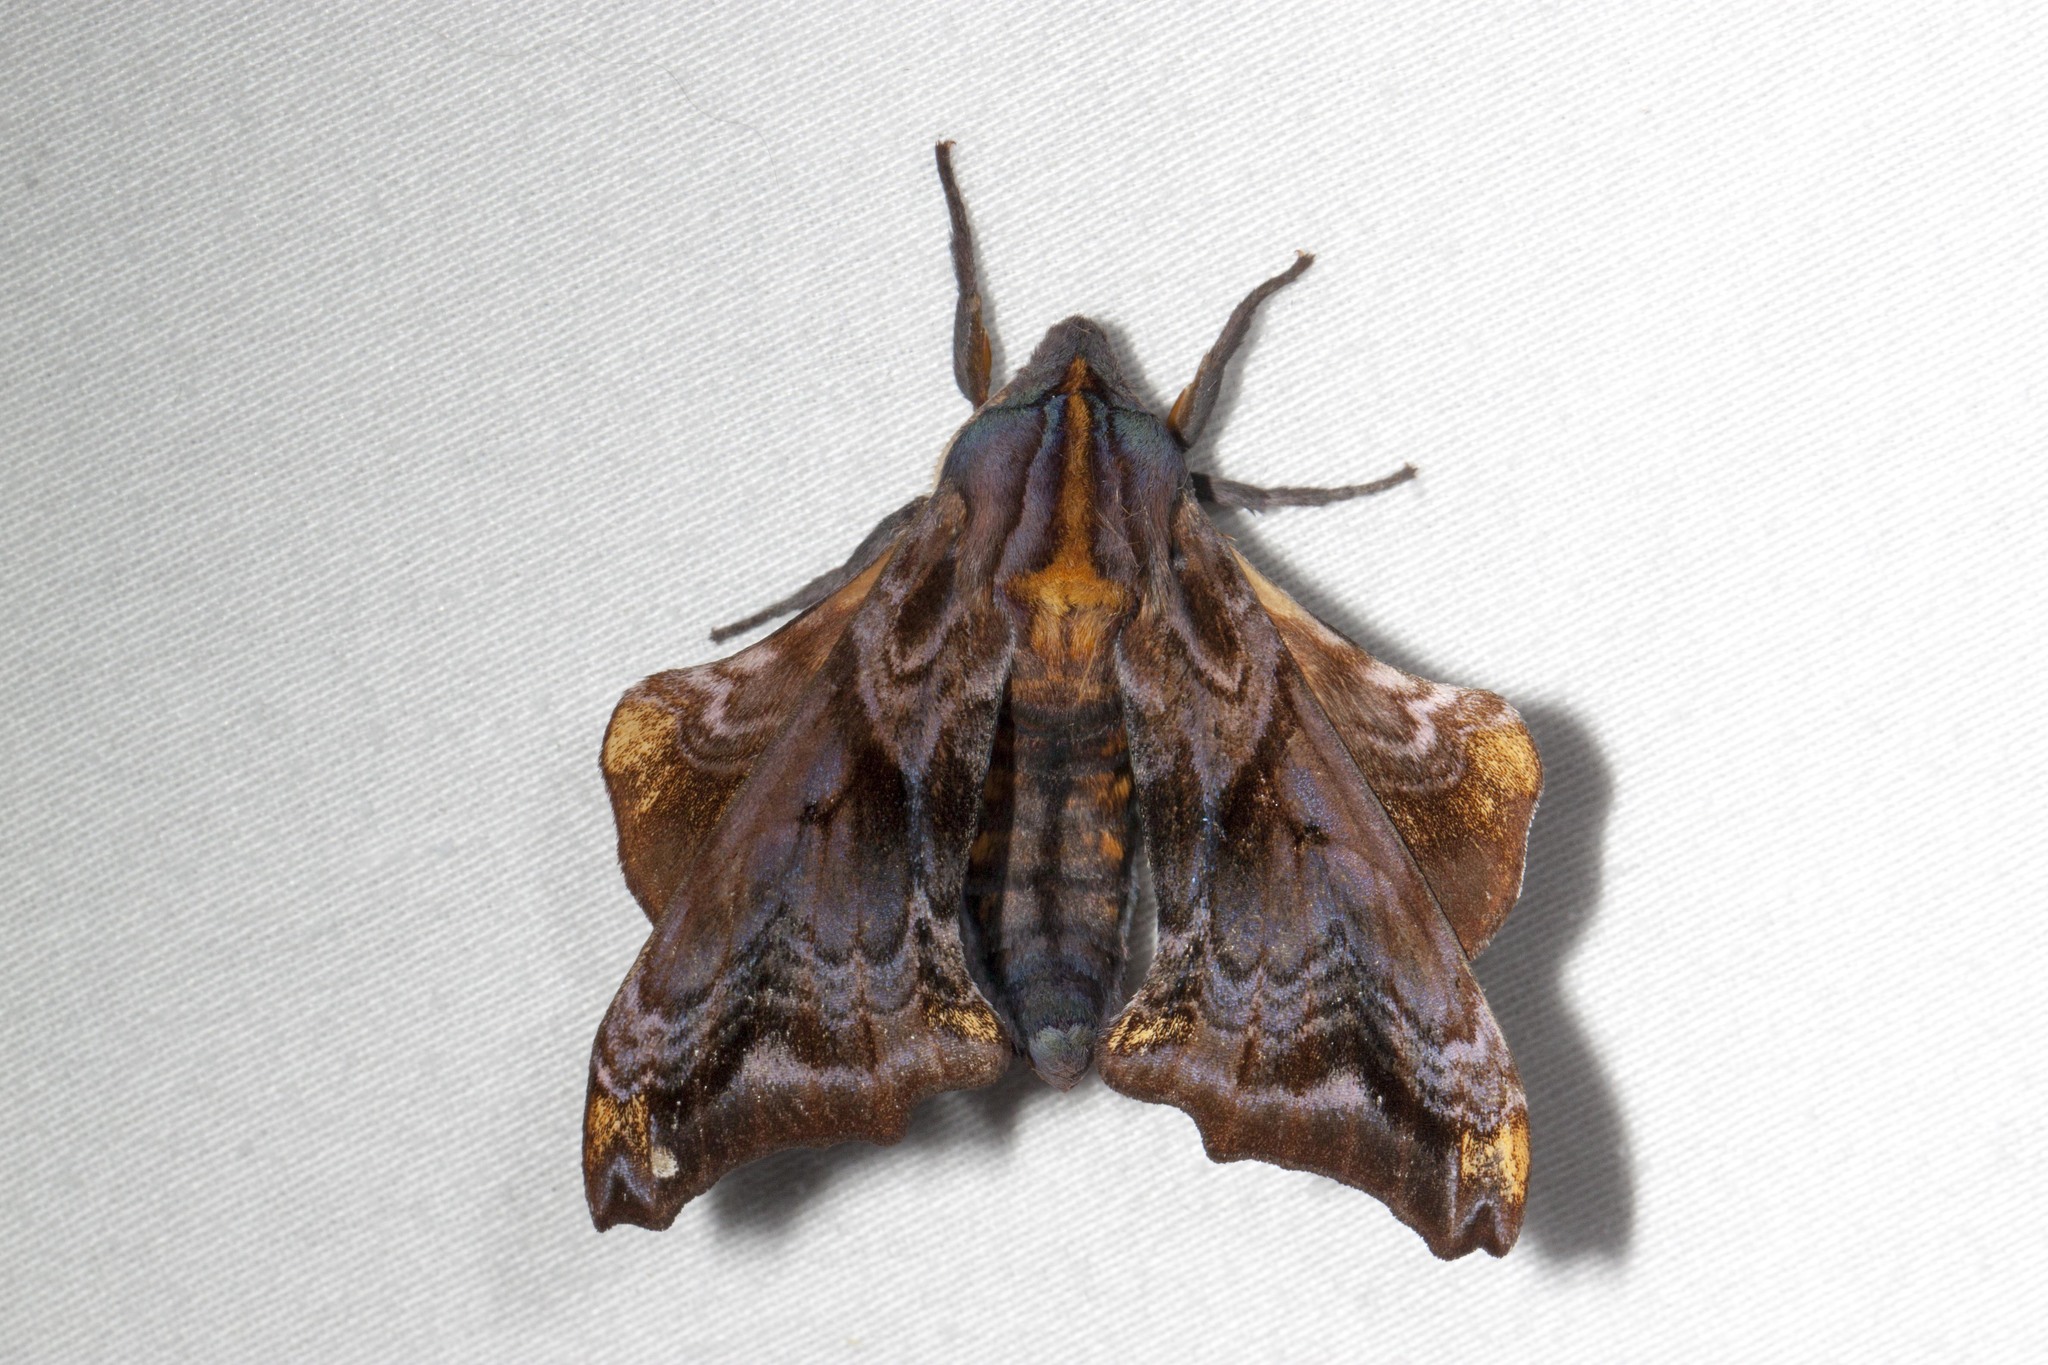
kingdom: Animalia
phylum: Arthropoda
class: Insecta
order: Lepidoptera
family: Sphingidae
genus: Paonias
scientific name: Paonias myops
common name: Small-eyed sphinx
